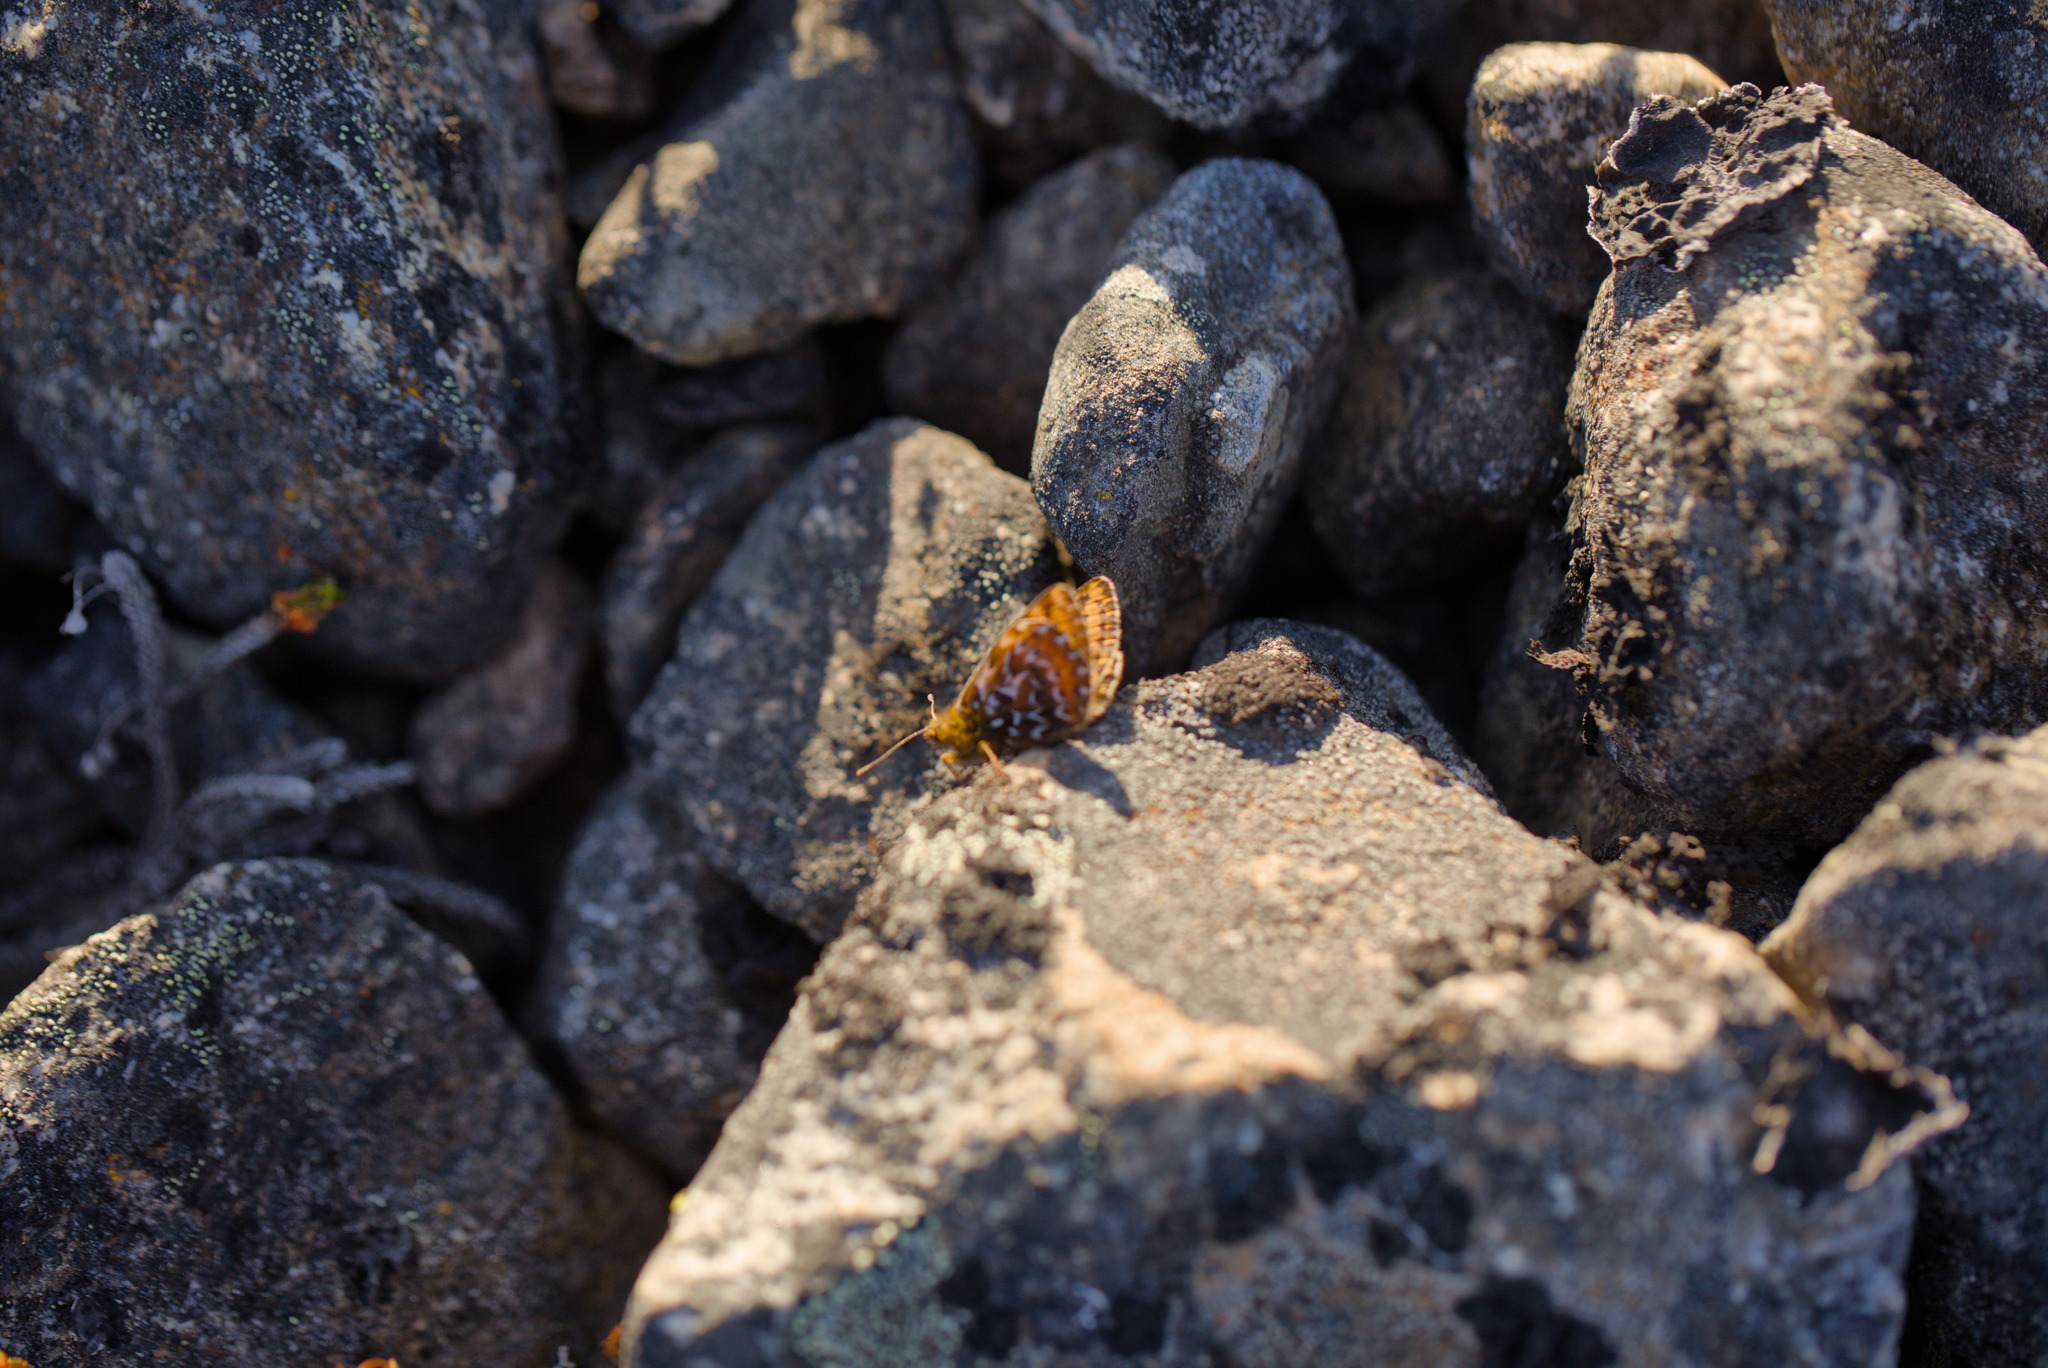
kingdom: Animalia
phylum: Arthropoda
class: Insecta
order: Lepidoptera
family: Nymphalidae
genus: Clossiana
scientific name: Clossiana polaris
